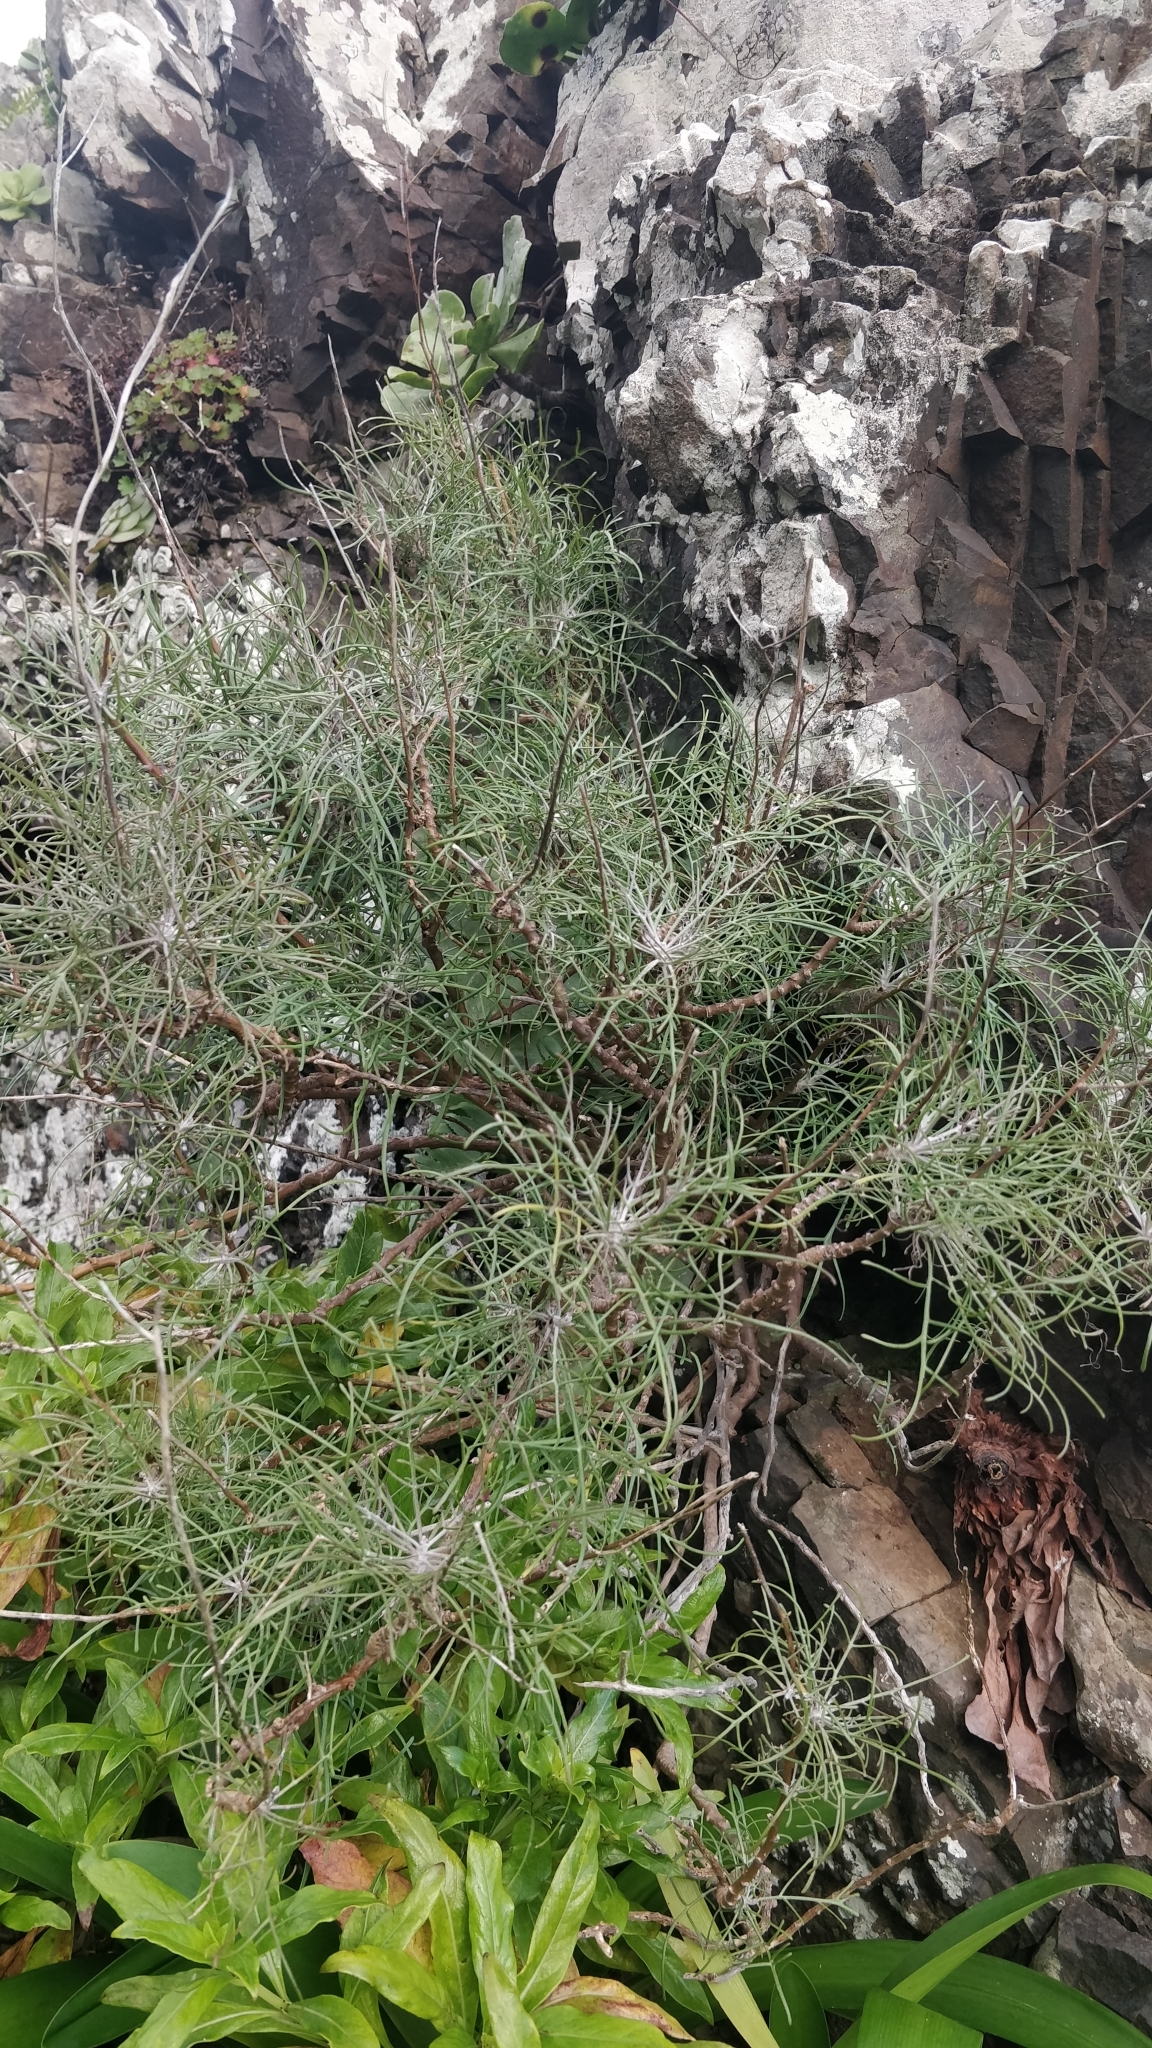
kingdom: Plantae
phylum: Tracheophyta
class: Magnoliopsida
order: Asterales
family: Asteraceae
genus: Tolpis
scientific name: Tolpis succulenta
